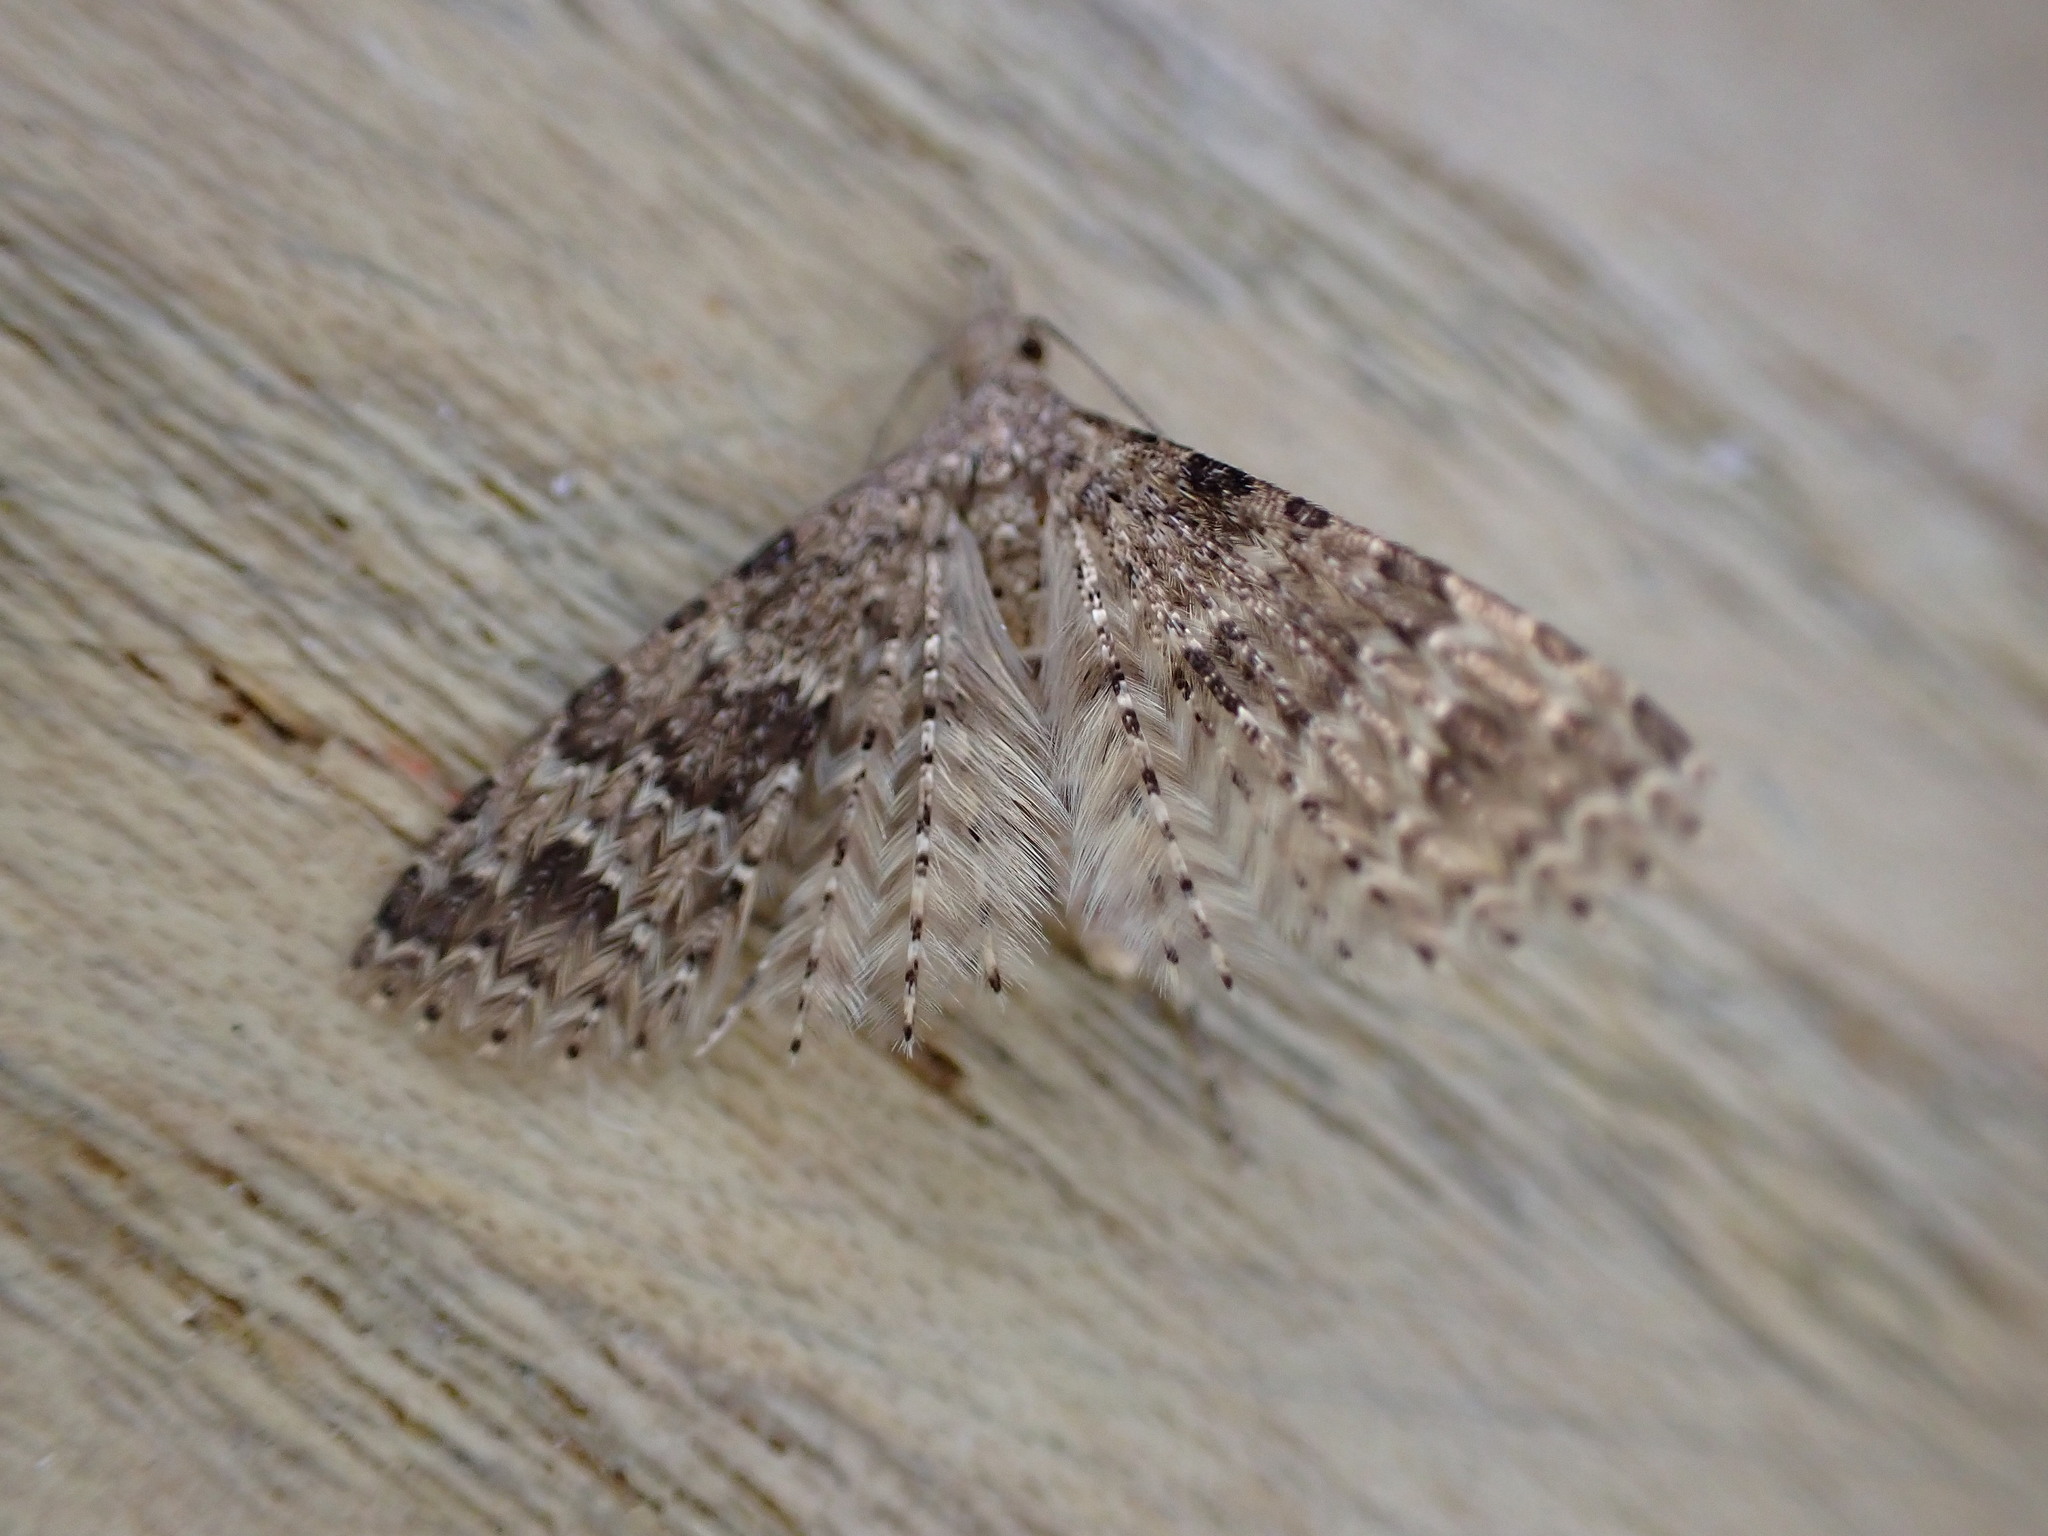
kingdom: Animalia
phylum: Arthropoda
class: Insecta
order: Lepidoptera
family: Alucitidae
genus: Alucita
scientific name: Alucita hexadactyla
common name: Twenty-plume moth
